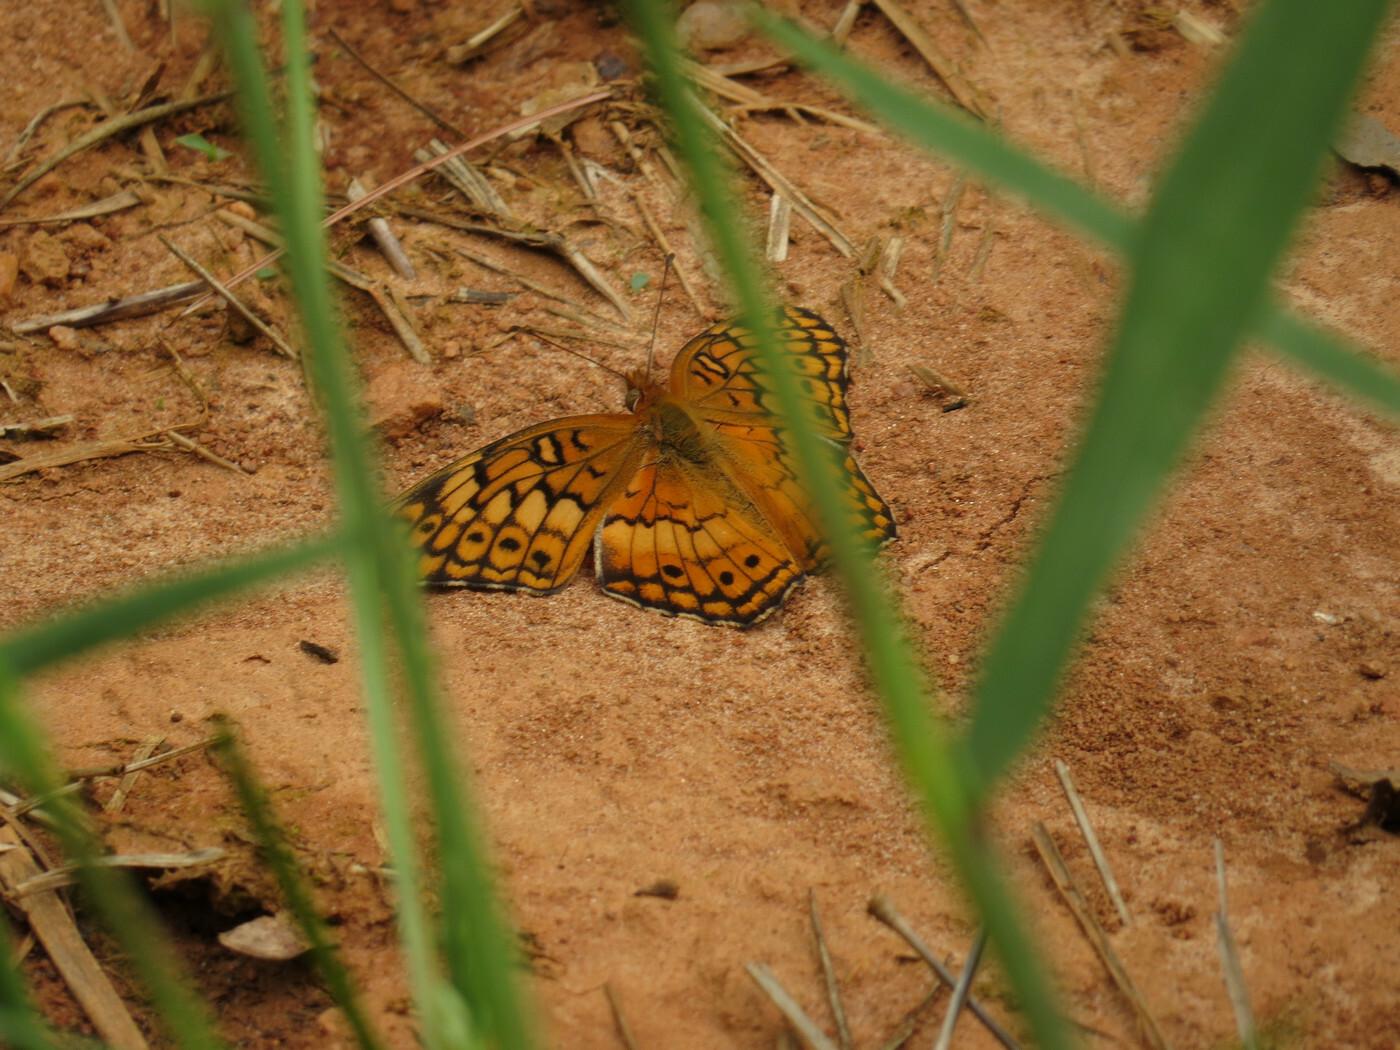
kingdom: Animalia
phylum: Arthropoda
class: Insecta
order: Lepidoptera
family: Nymphalidae
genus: Euptoieta
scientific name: Euptoieta claudia
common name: Variegated fritillary
